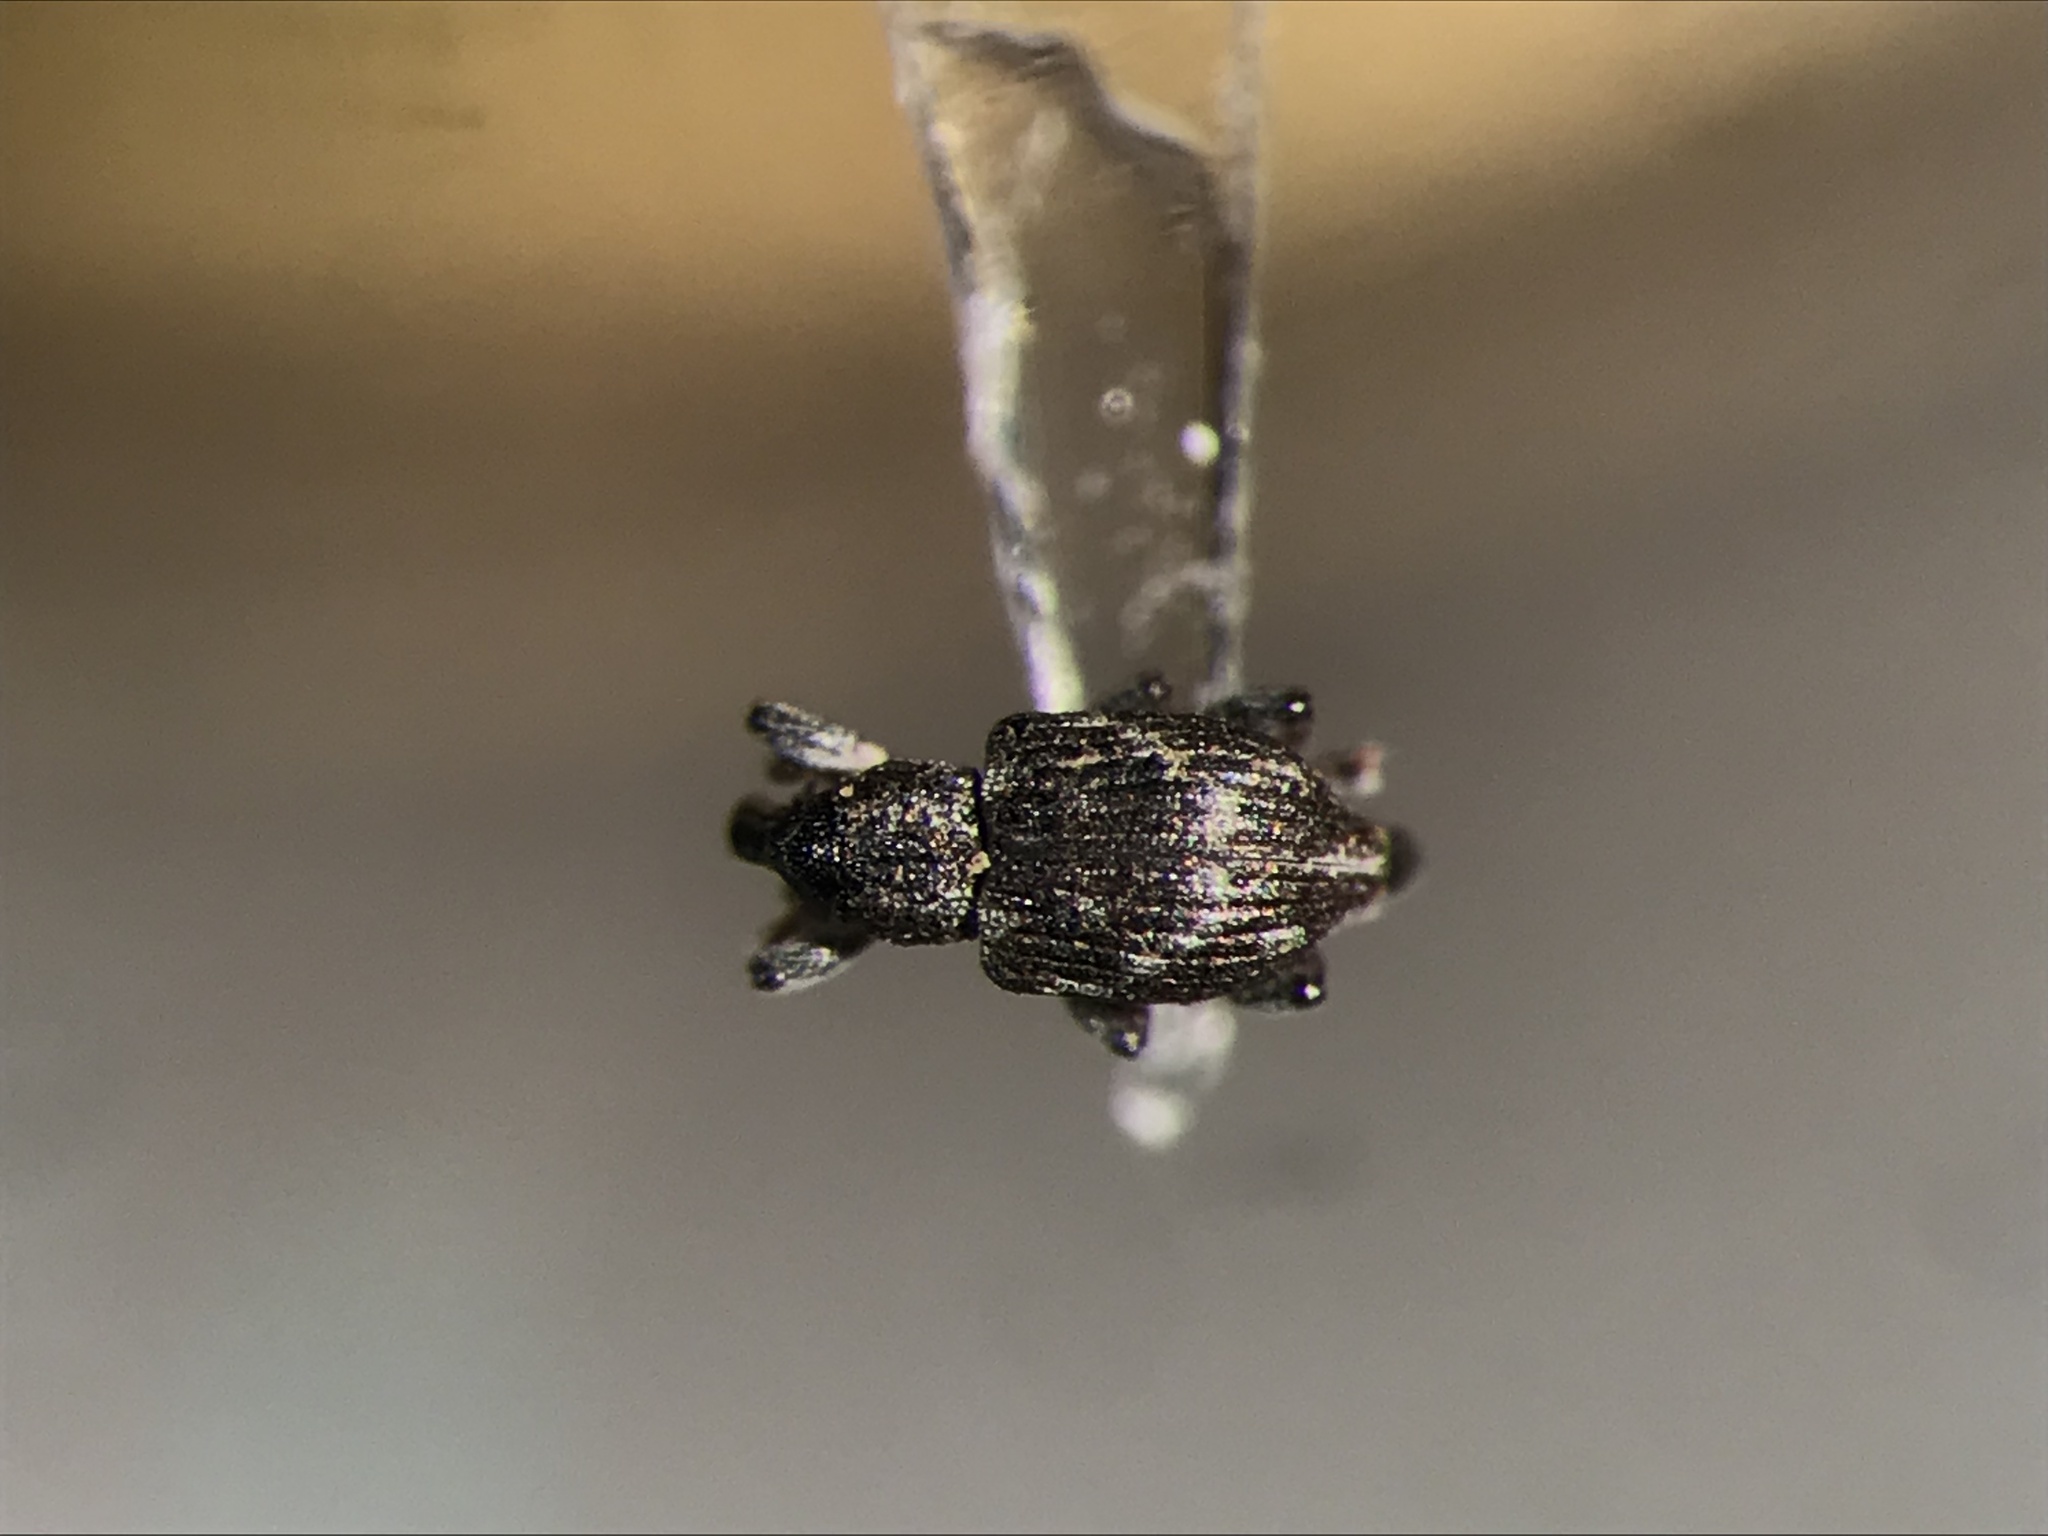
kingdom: Animalia
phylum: Arthropoda
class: Insecta
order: Coleoptera
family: Brachyceridae
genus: Tanysphyrus
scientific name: Tanysphyrus lemnae
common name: Duckweed weevil
